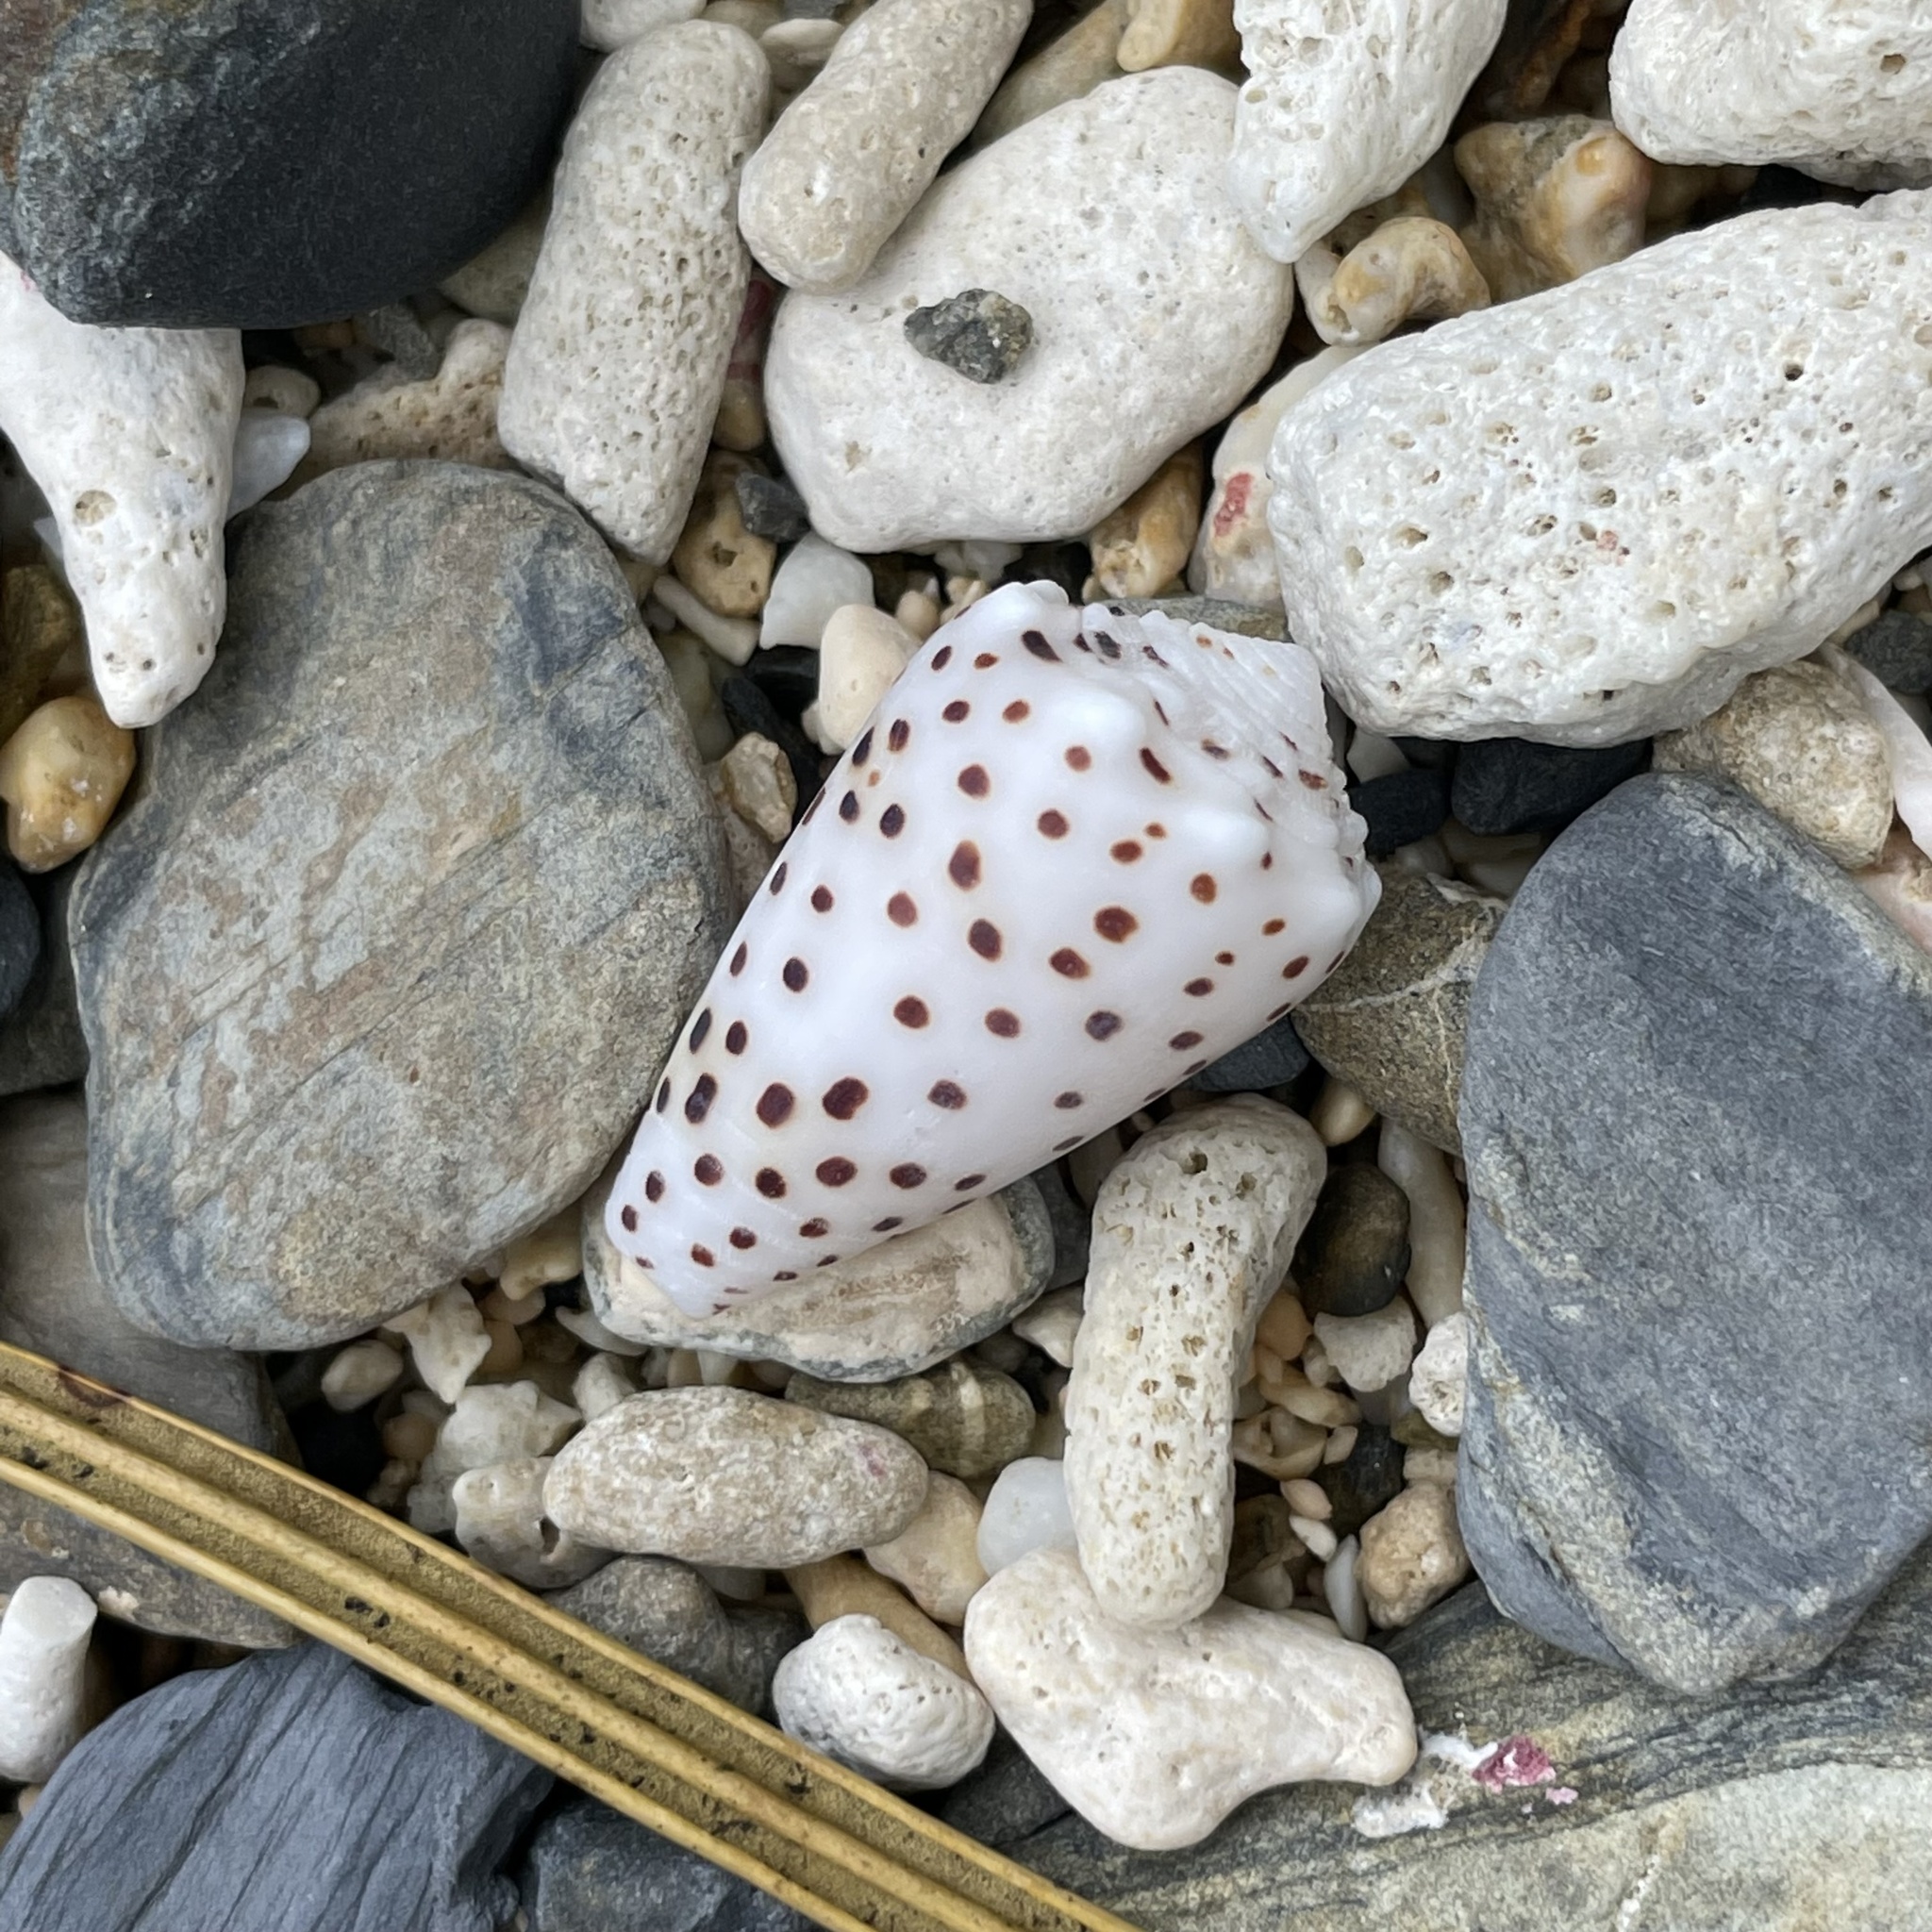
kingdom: Animalia
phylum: Mollusca
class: Gastropoda
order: Neogastropoda
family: Conidae
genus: Conus
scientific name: Conus pulicarius
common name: Flea-bite cone
